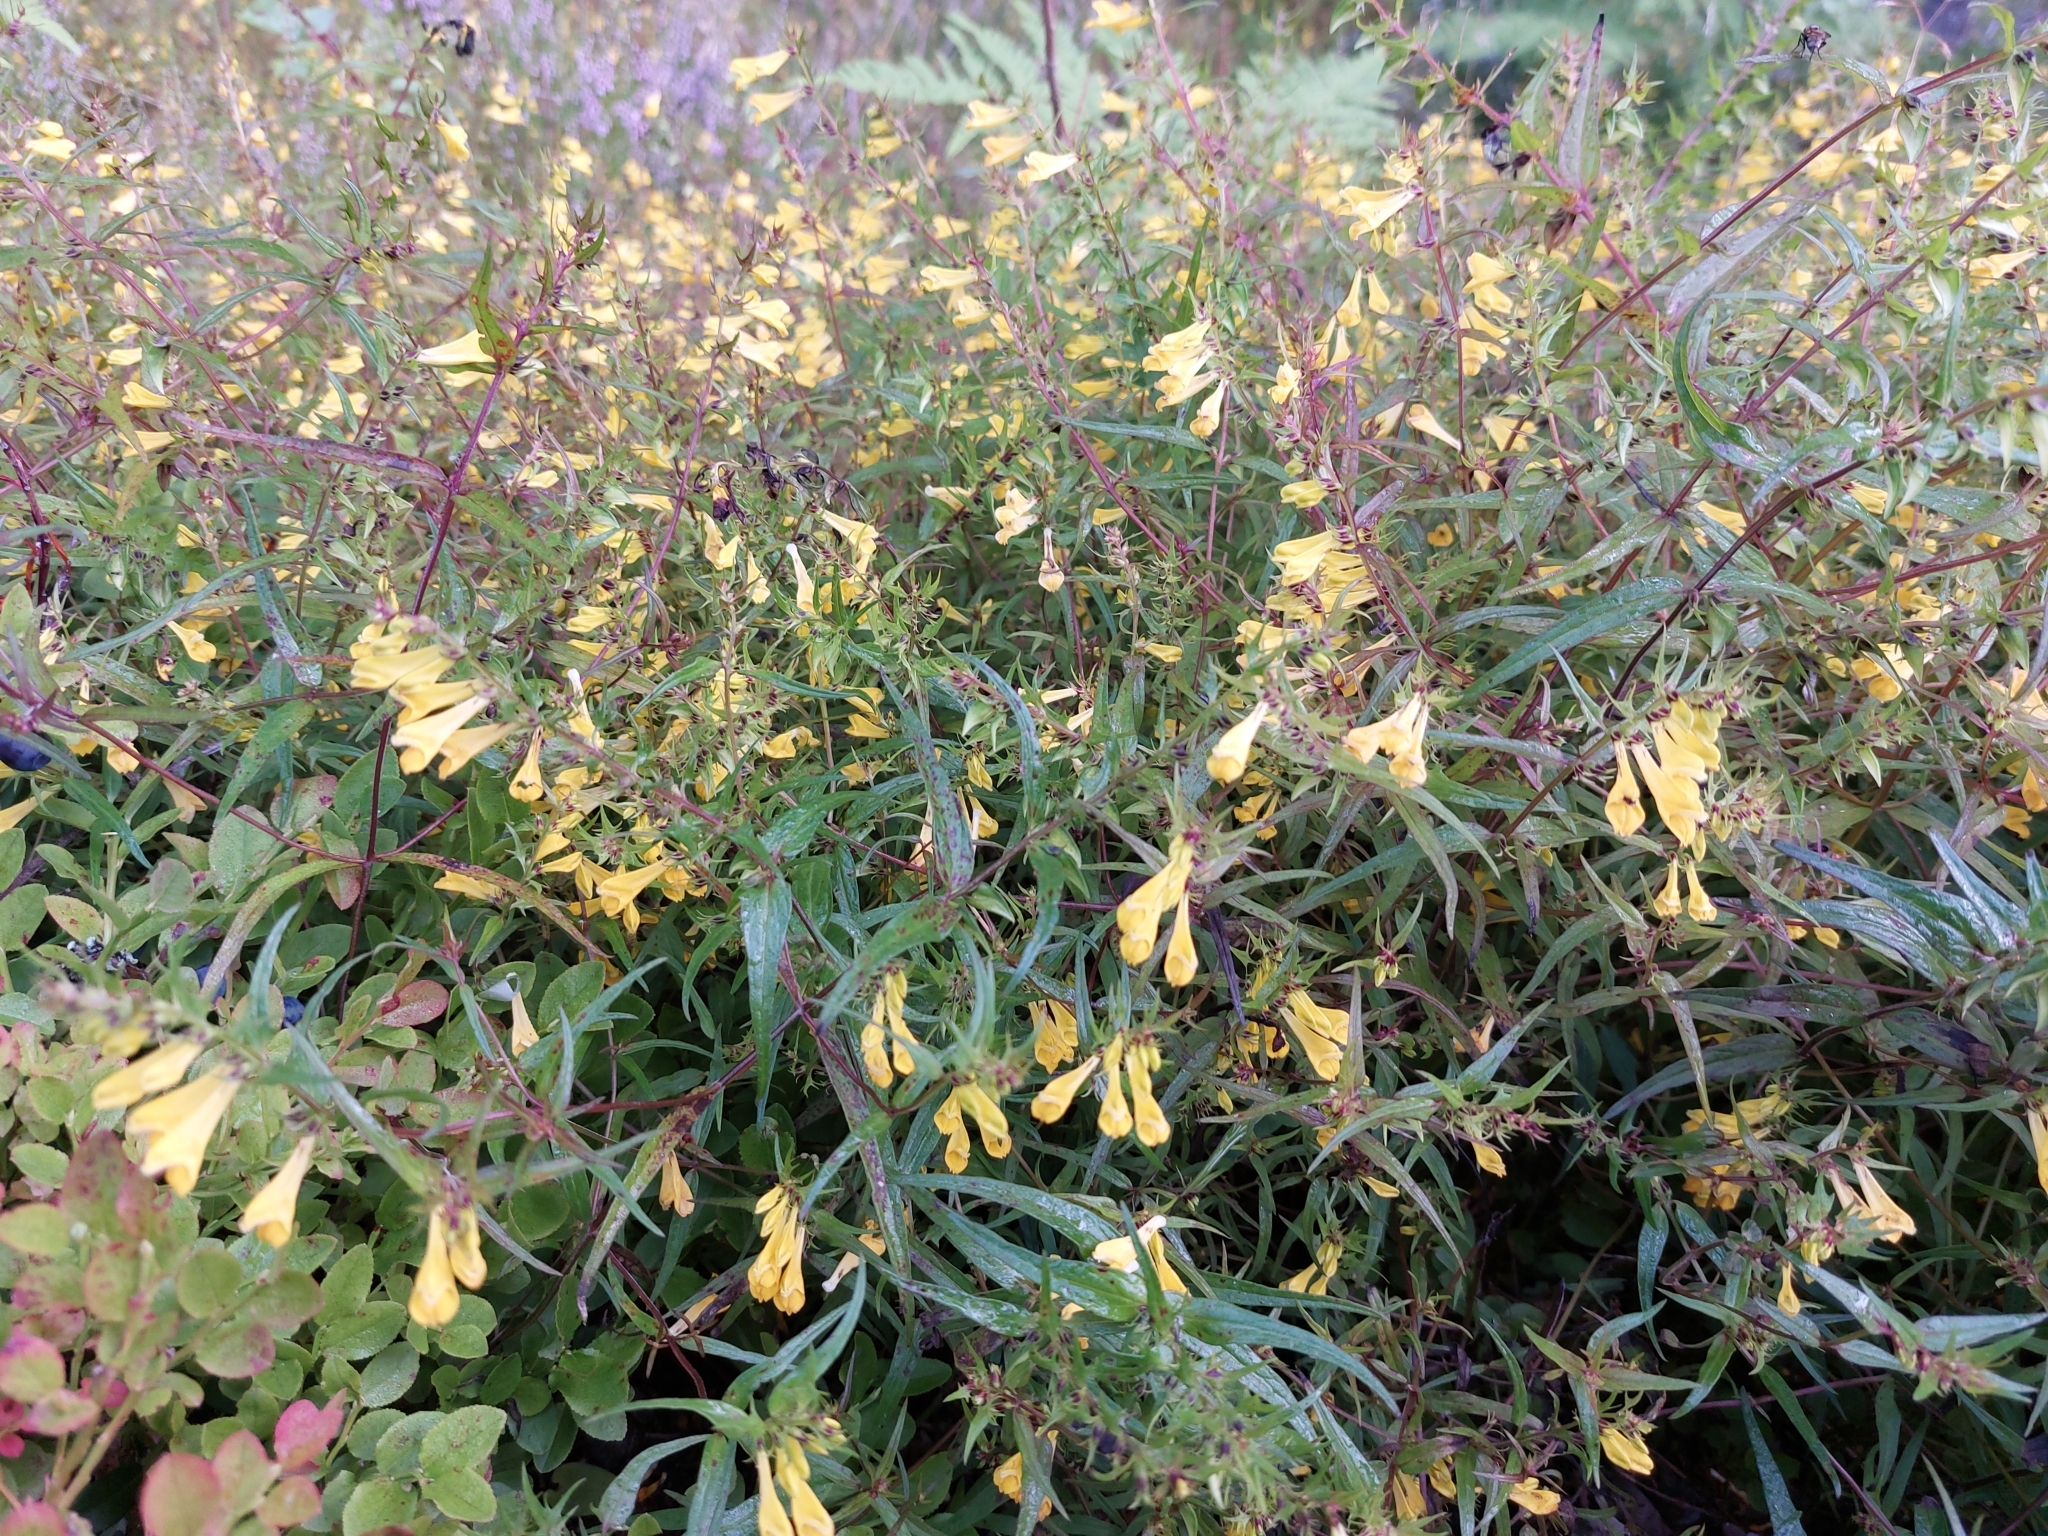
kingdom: Plantae
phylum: Tracheophyta
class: Magnoliopsida
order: Lamiales
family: Orobanchaceae
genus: Melampyrum
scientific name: Melampyrum pratense
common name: Common cow-wheat
